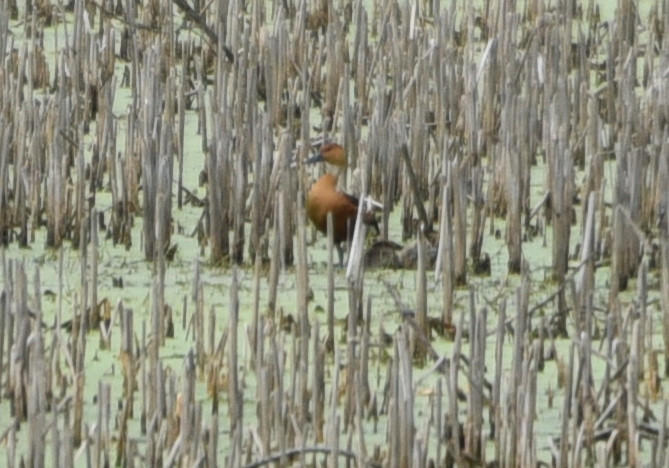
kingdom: Animalia
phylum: Chordata
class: Aves
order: Anseriformes
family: Anatidae
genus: Dendrocygna
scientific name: Dendrocygna bicolor
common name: Fulvous whistling duck
